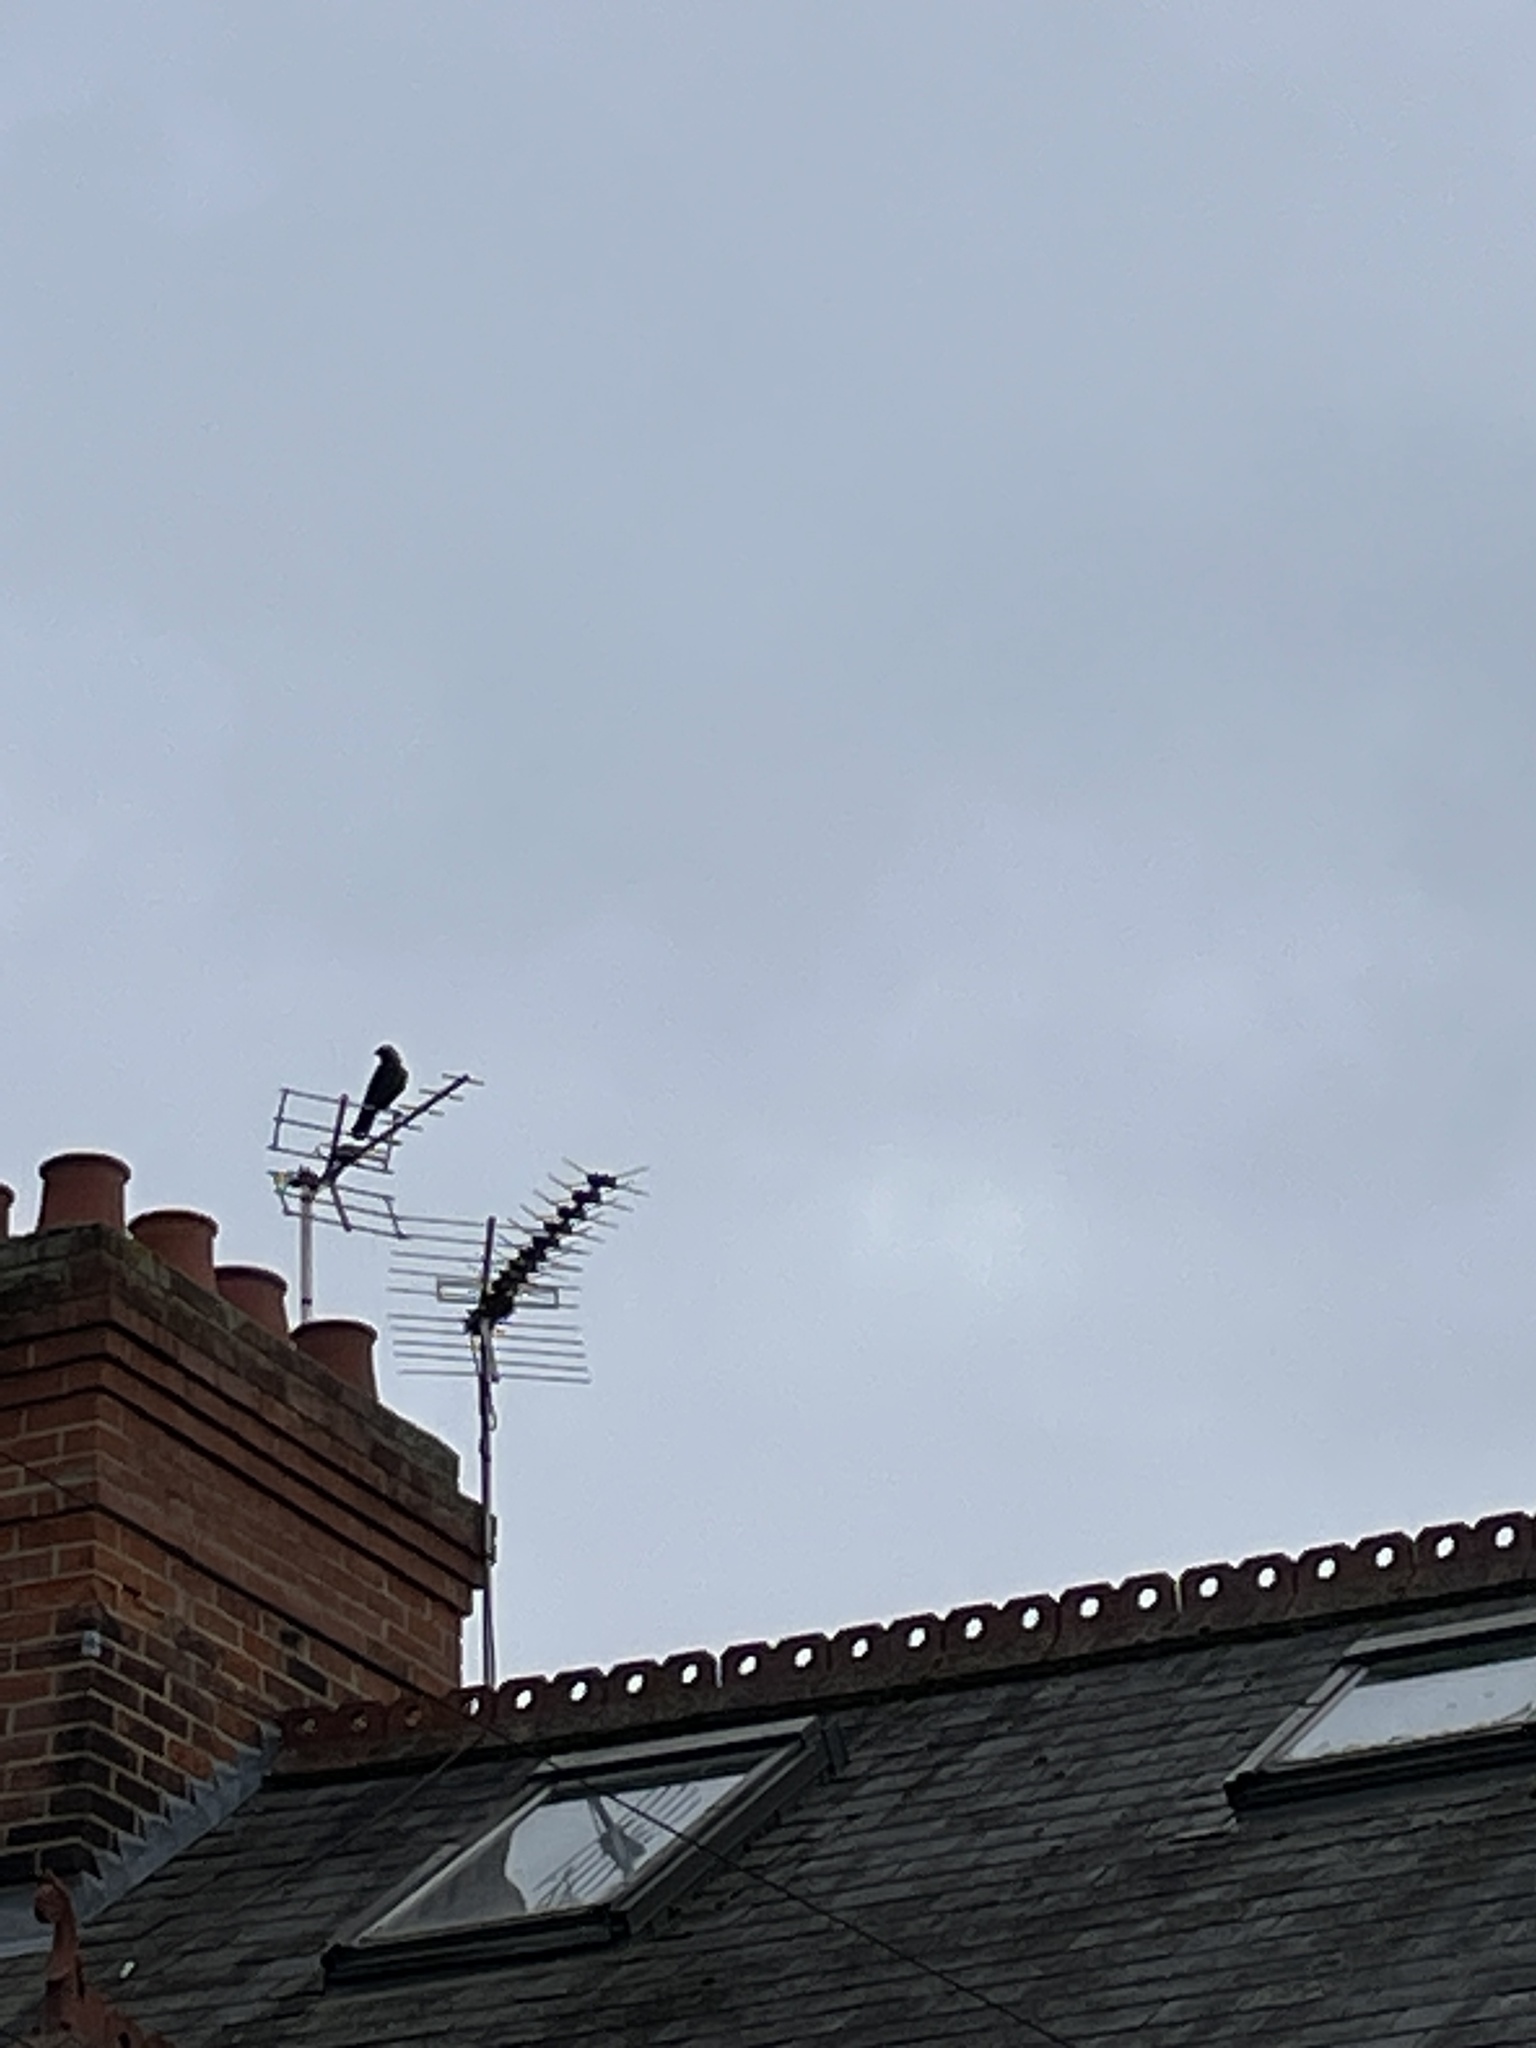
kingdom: Animalia
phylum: Chordata
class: Aves
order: Passeriformes
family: Corvidae
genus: Coloeus
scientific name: Coloeus monedula
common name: Western jackdaw
